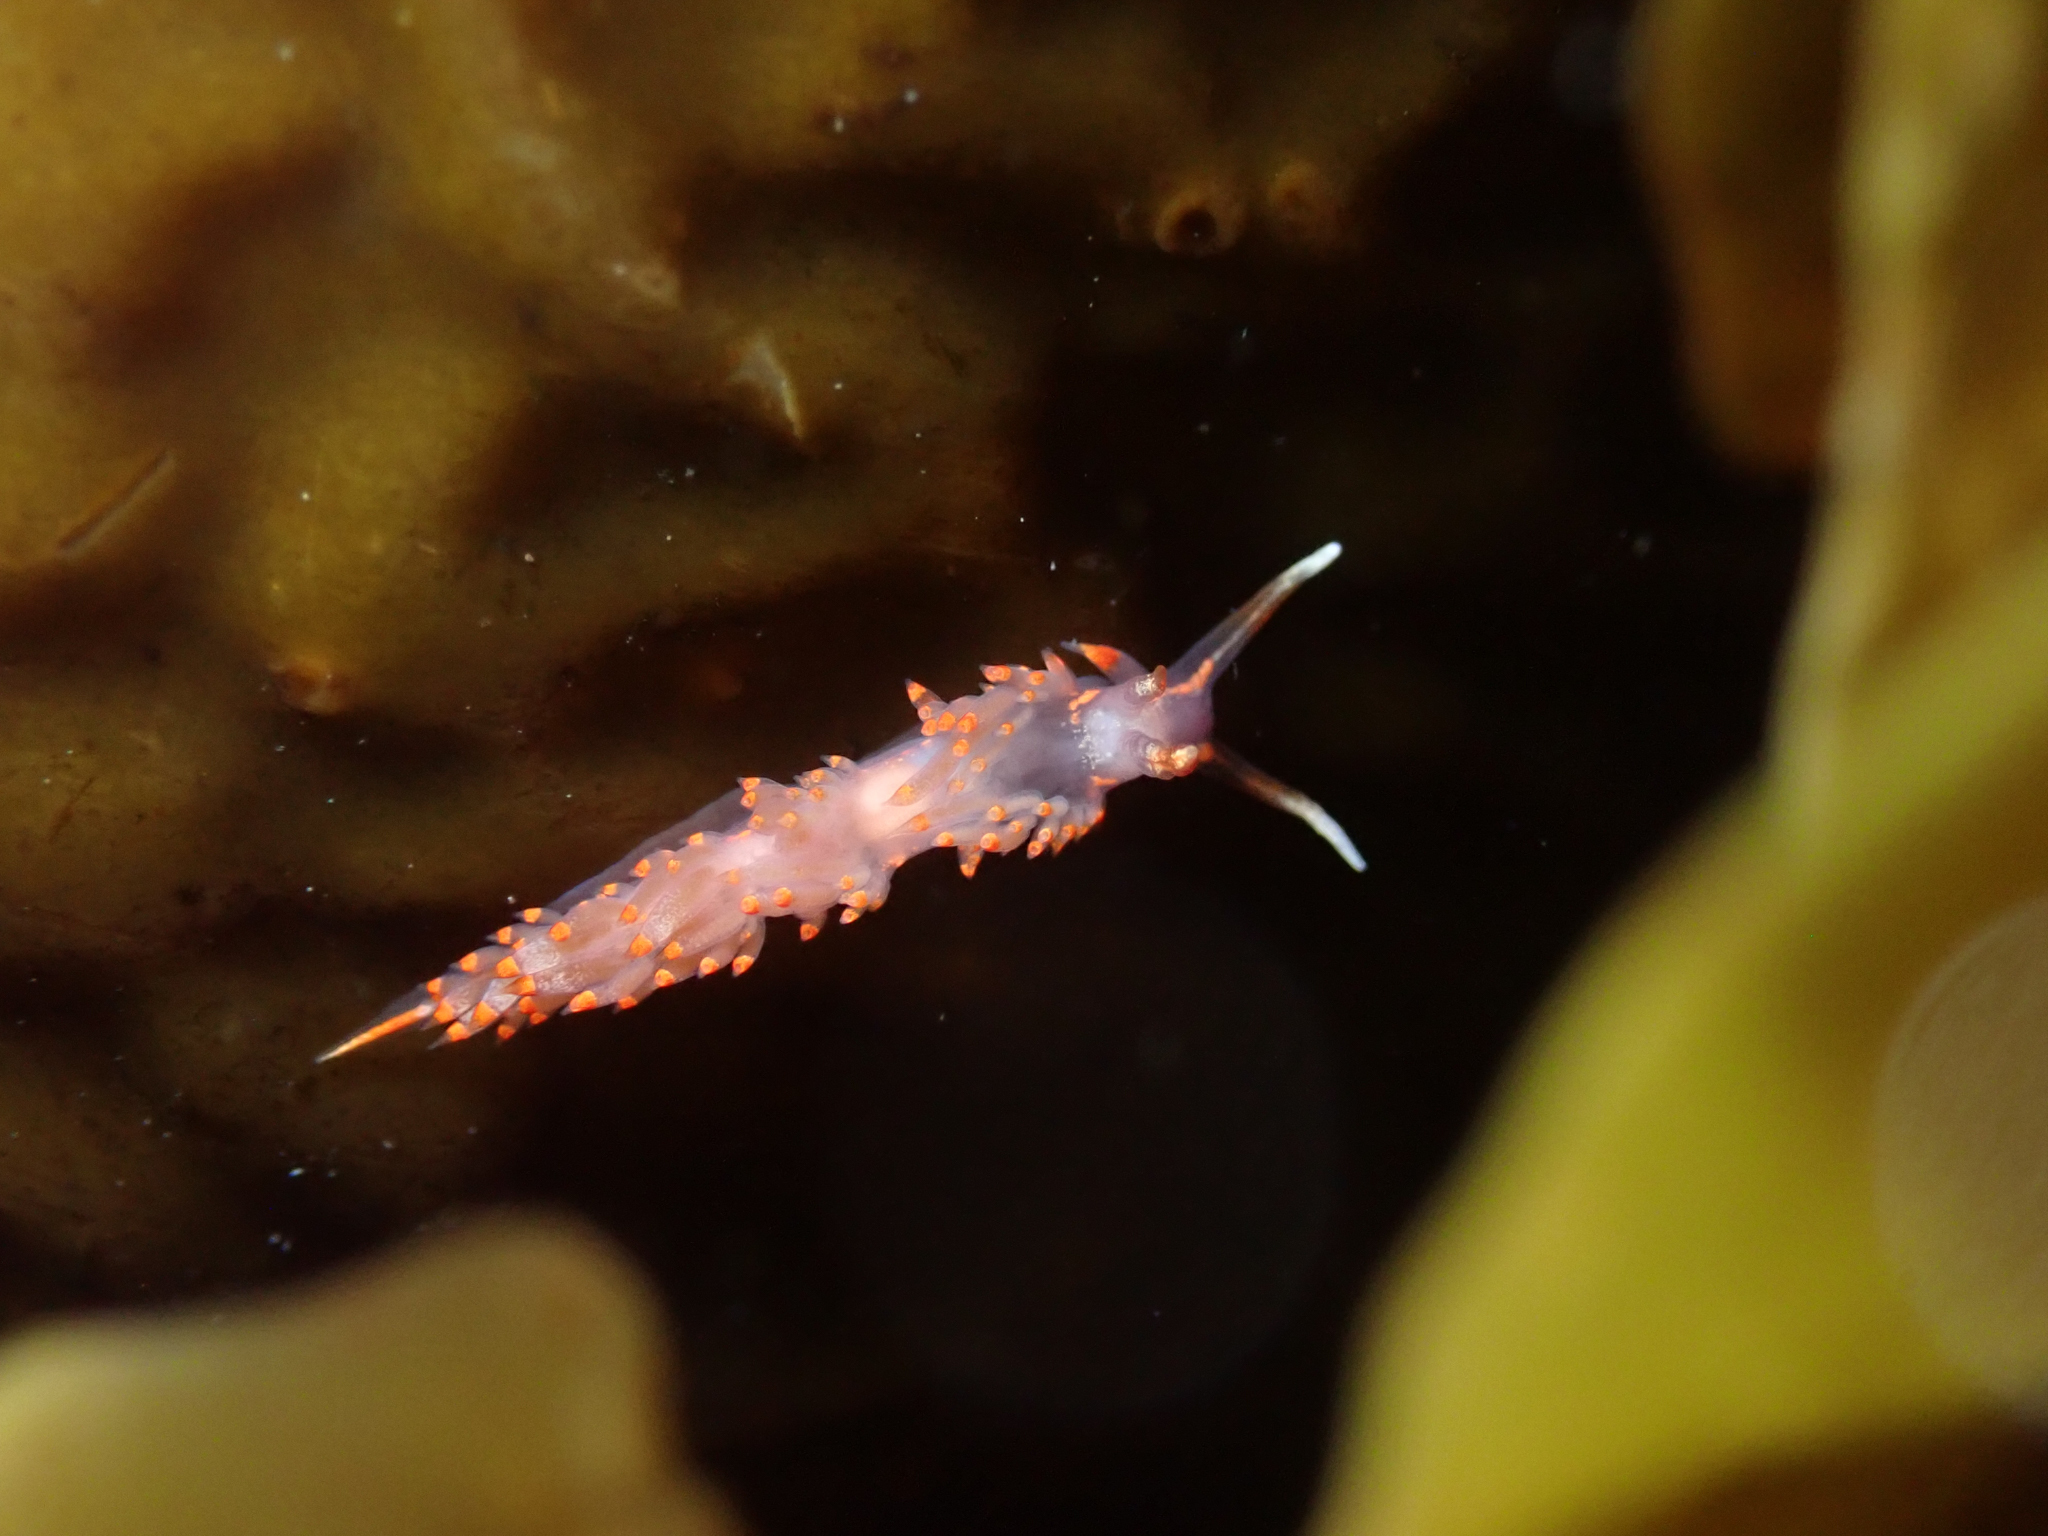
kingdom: Animalia
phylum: Mollusca
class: Gastropoda
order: Nudibranchia
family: Facelinidae
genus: Austraeolis
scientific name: Austraeolis stearnsi
